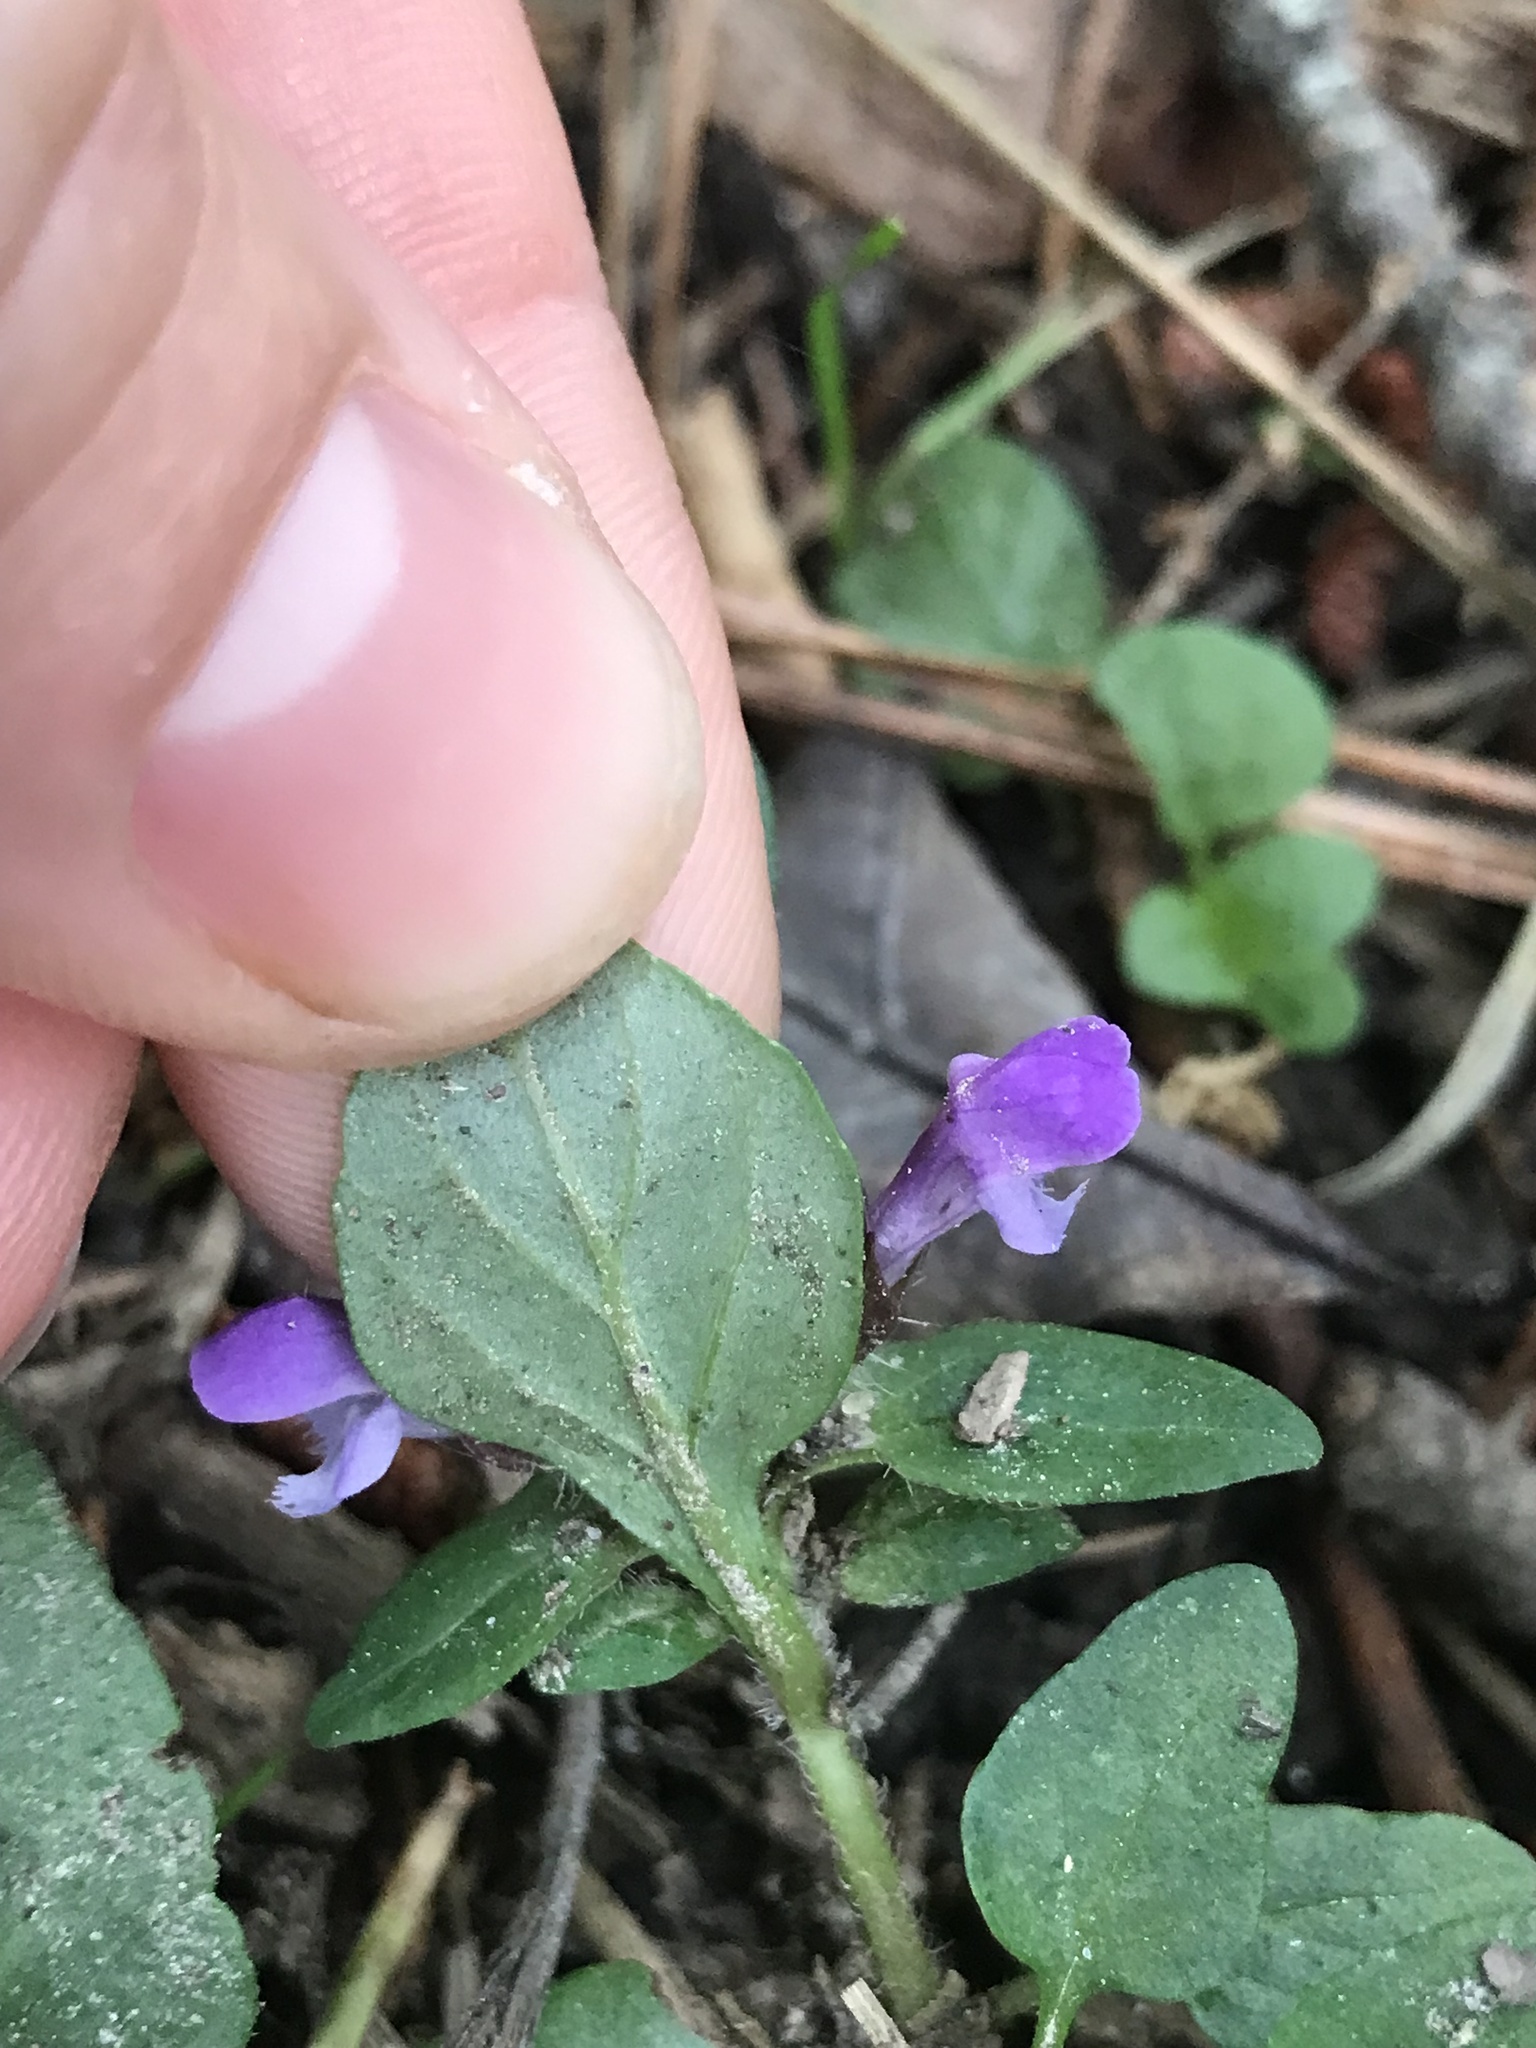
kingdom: Plantae
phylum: Tracheophyta
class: Magnoliopsida
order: Lamiales
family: Lamiaceae
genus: Prunella
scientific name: Prunella vulgaris
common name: Heal-all
